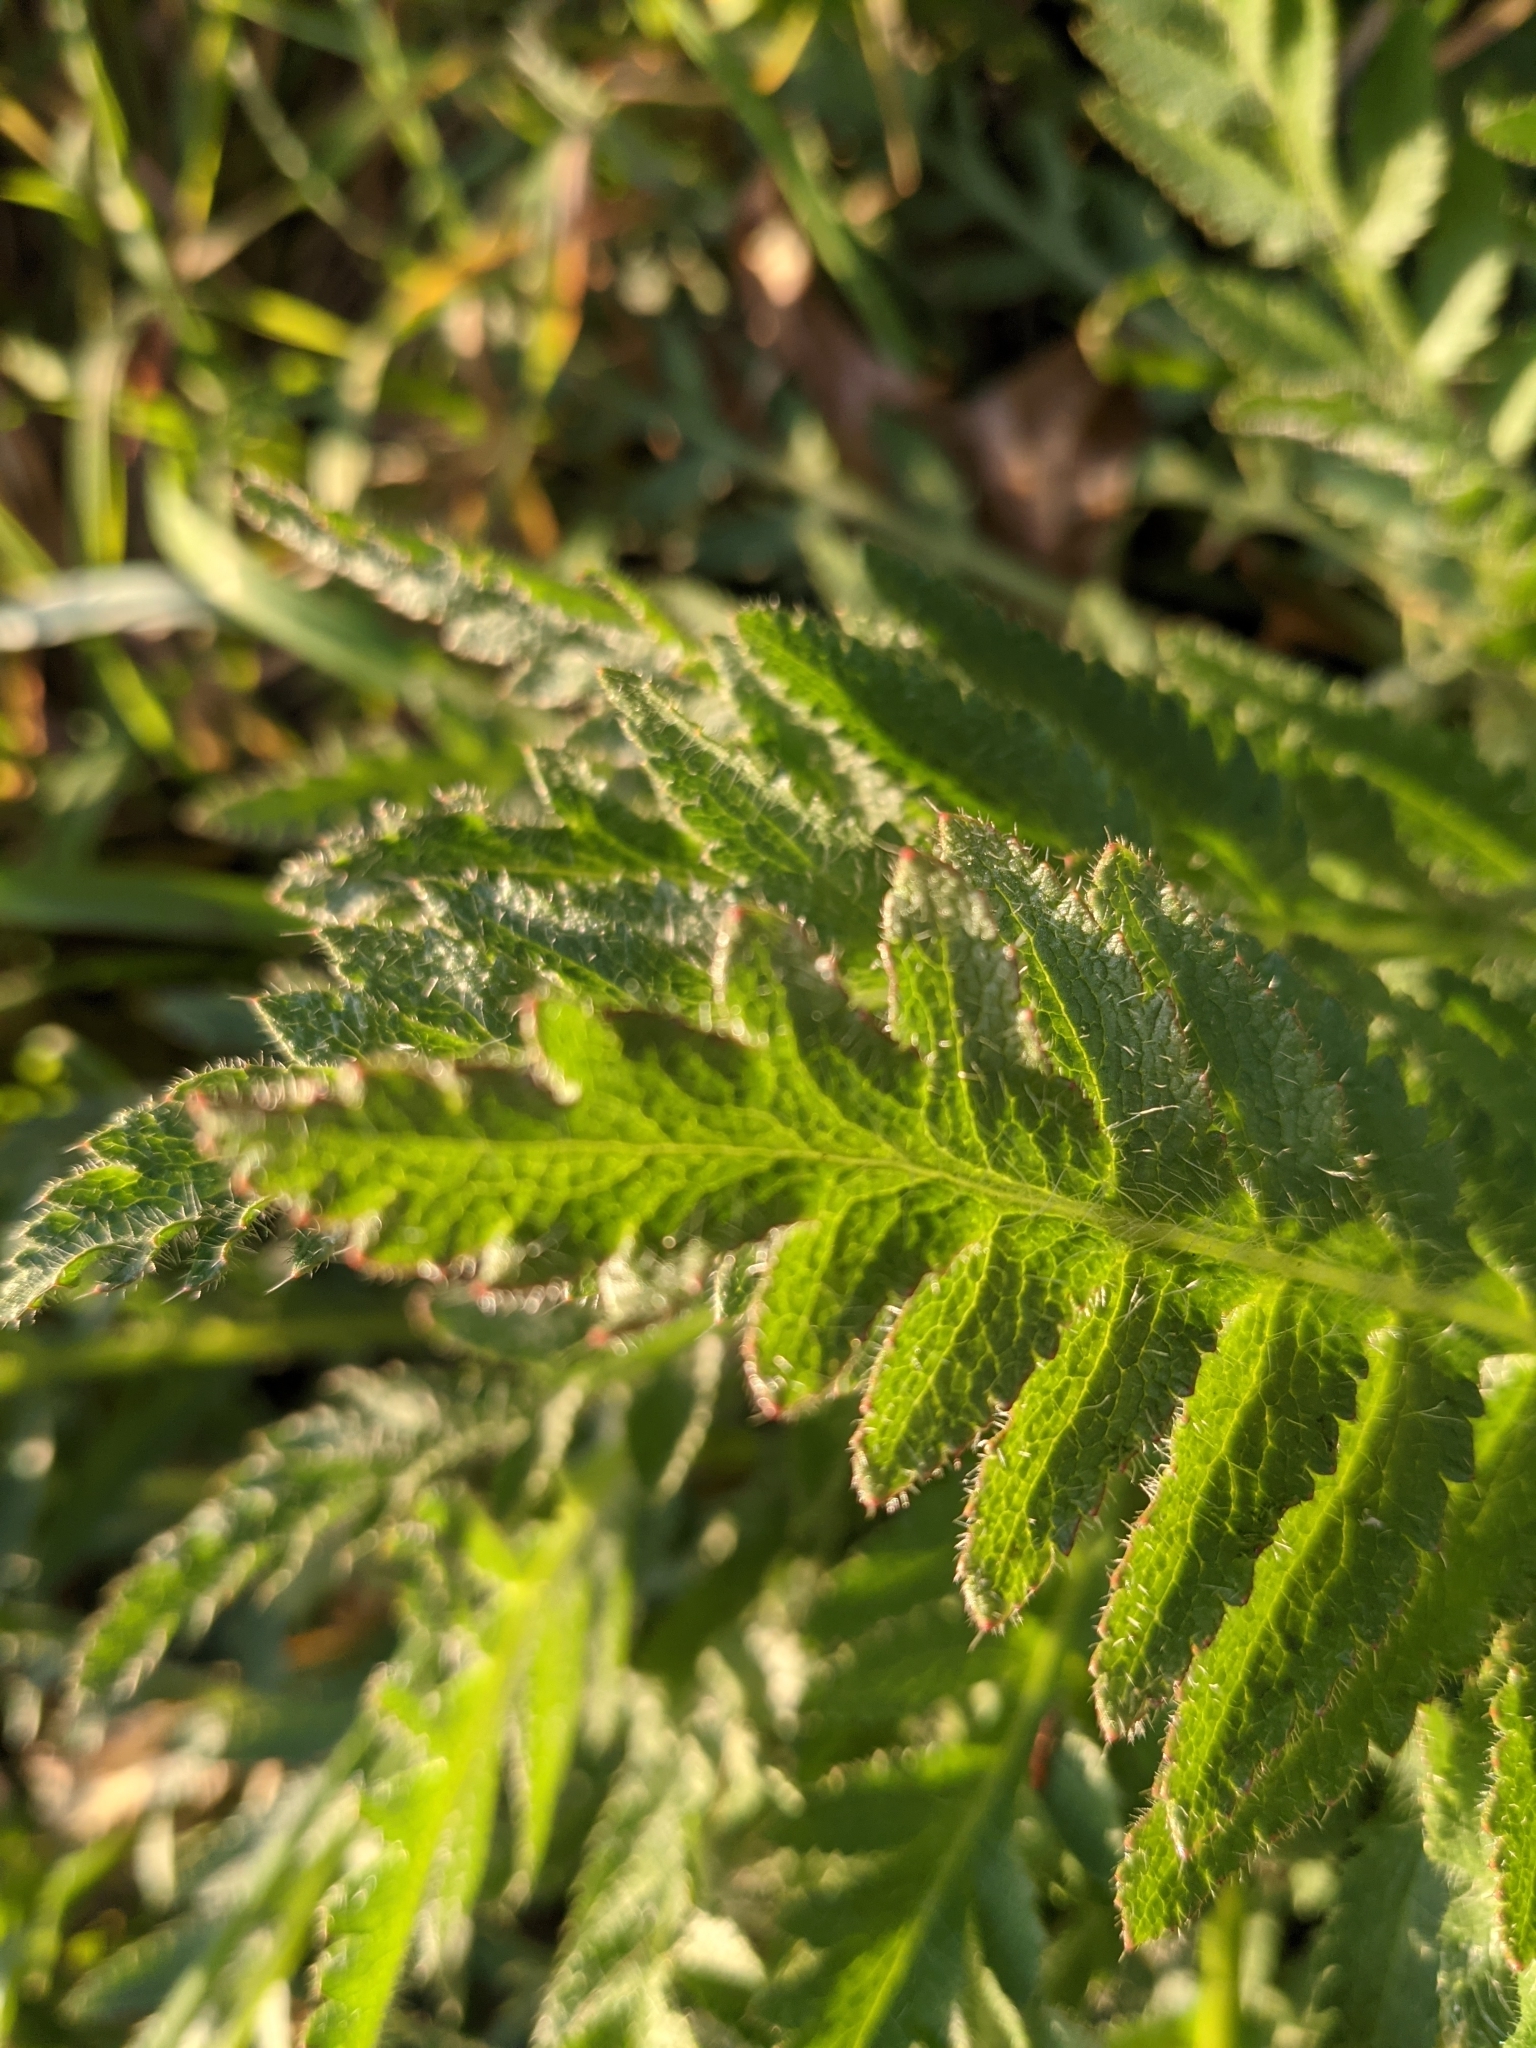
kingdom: Plantae
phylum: Tracheophyta
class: Magnoliopsida
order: Ranunculales
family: Papaveraceae
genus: Papaver
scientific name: Papaver orientale
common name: Oriental poppy
